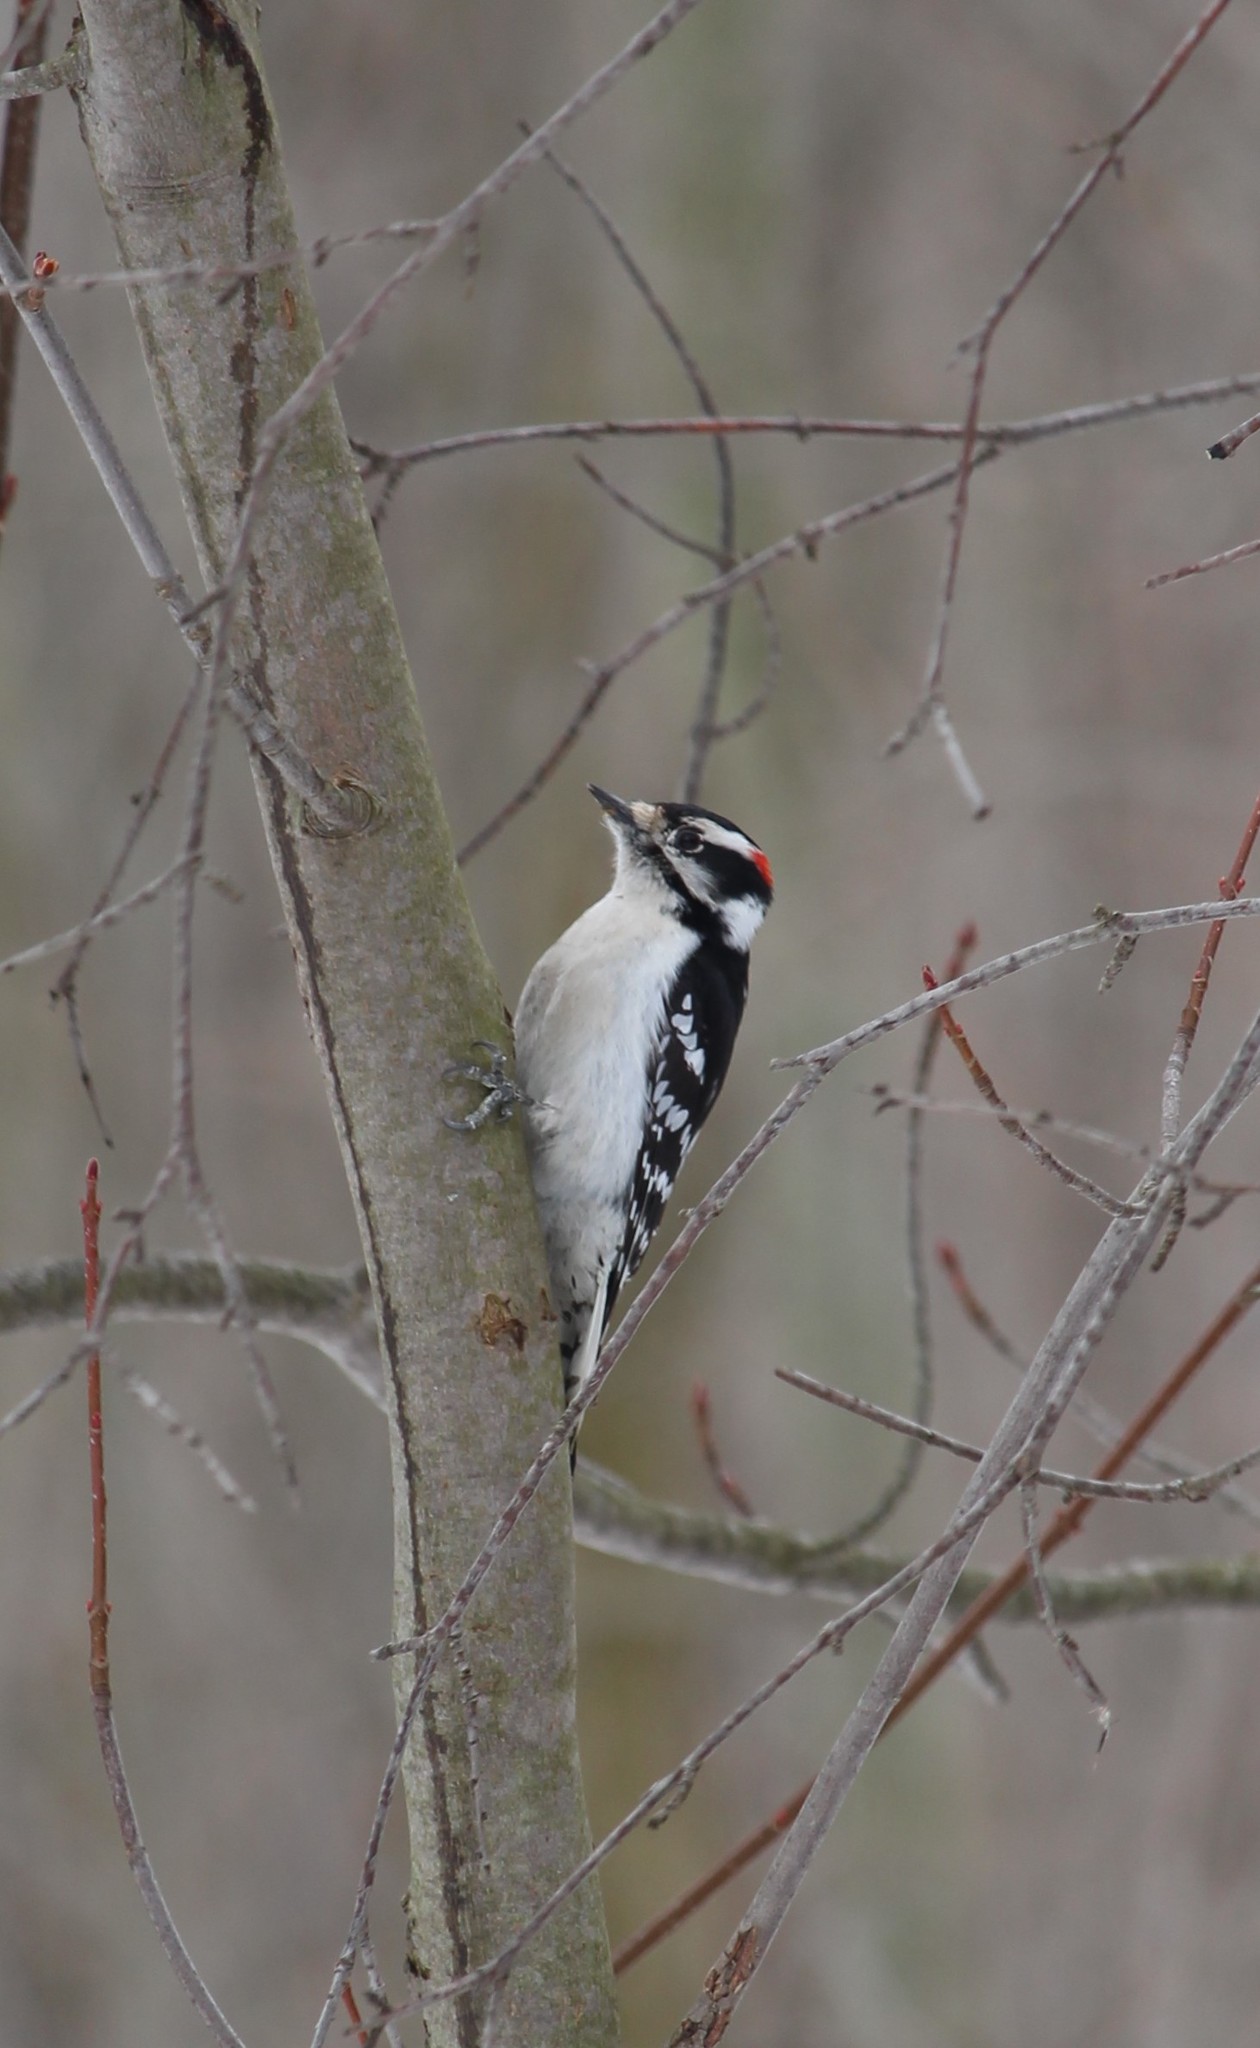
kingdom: Animalia
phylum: Chordata
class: Aves
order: Piciformes
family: Picidae
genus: Dryobates
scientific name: Dryobates pubescens
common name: Downy woodpecker
